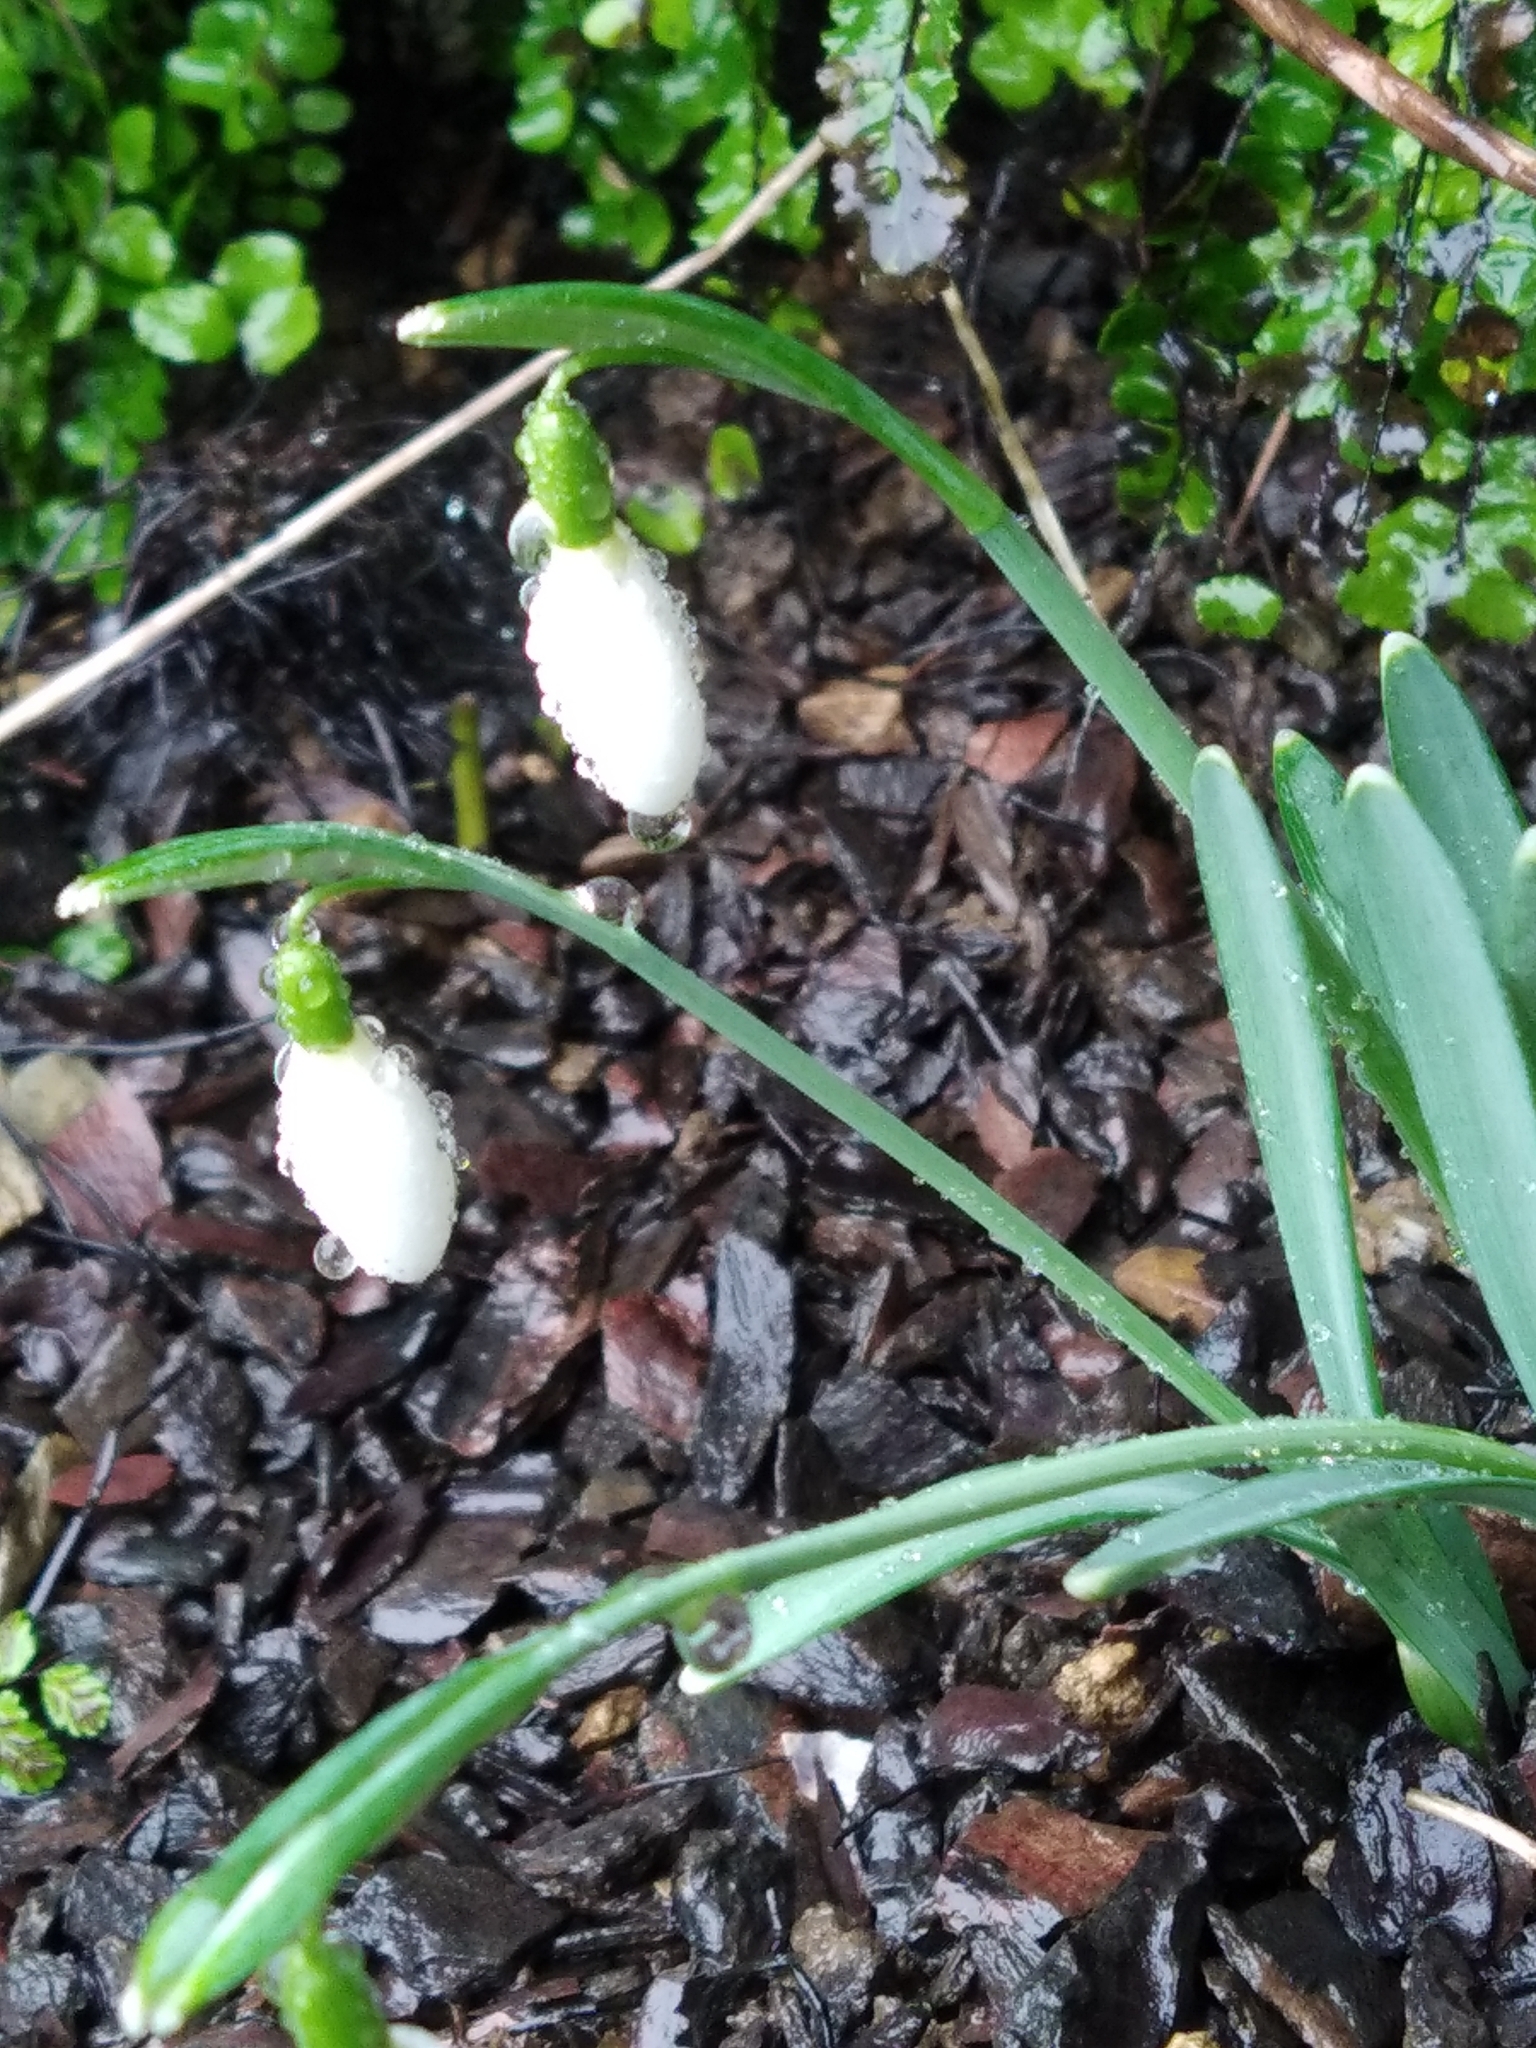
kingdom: Plantae
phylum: Tracheophyta
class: Liliopsida
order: Asparagales
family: Amaryllidaceae
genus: Galanthus
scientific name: Galanthus nivalis
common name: Snowdrop
